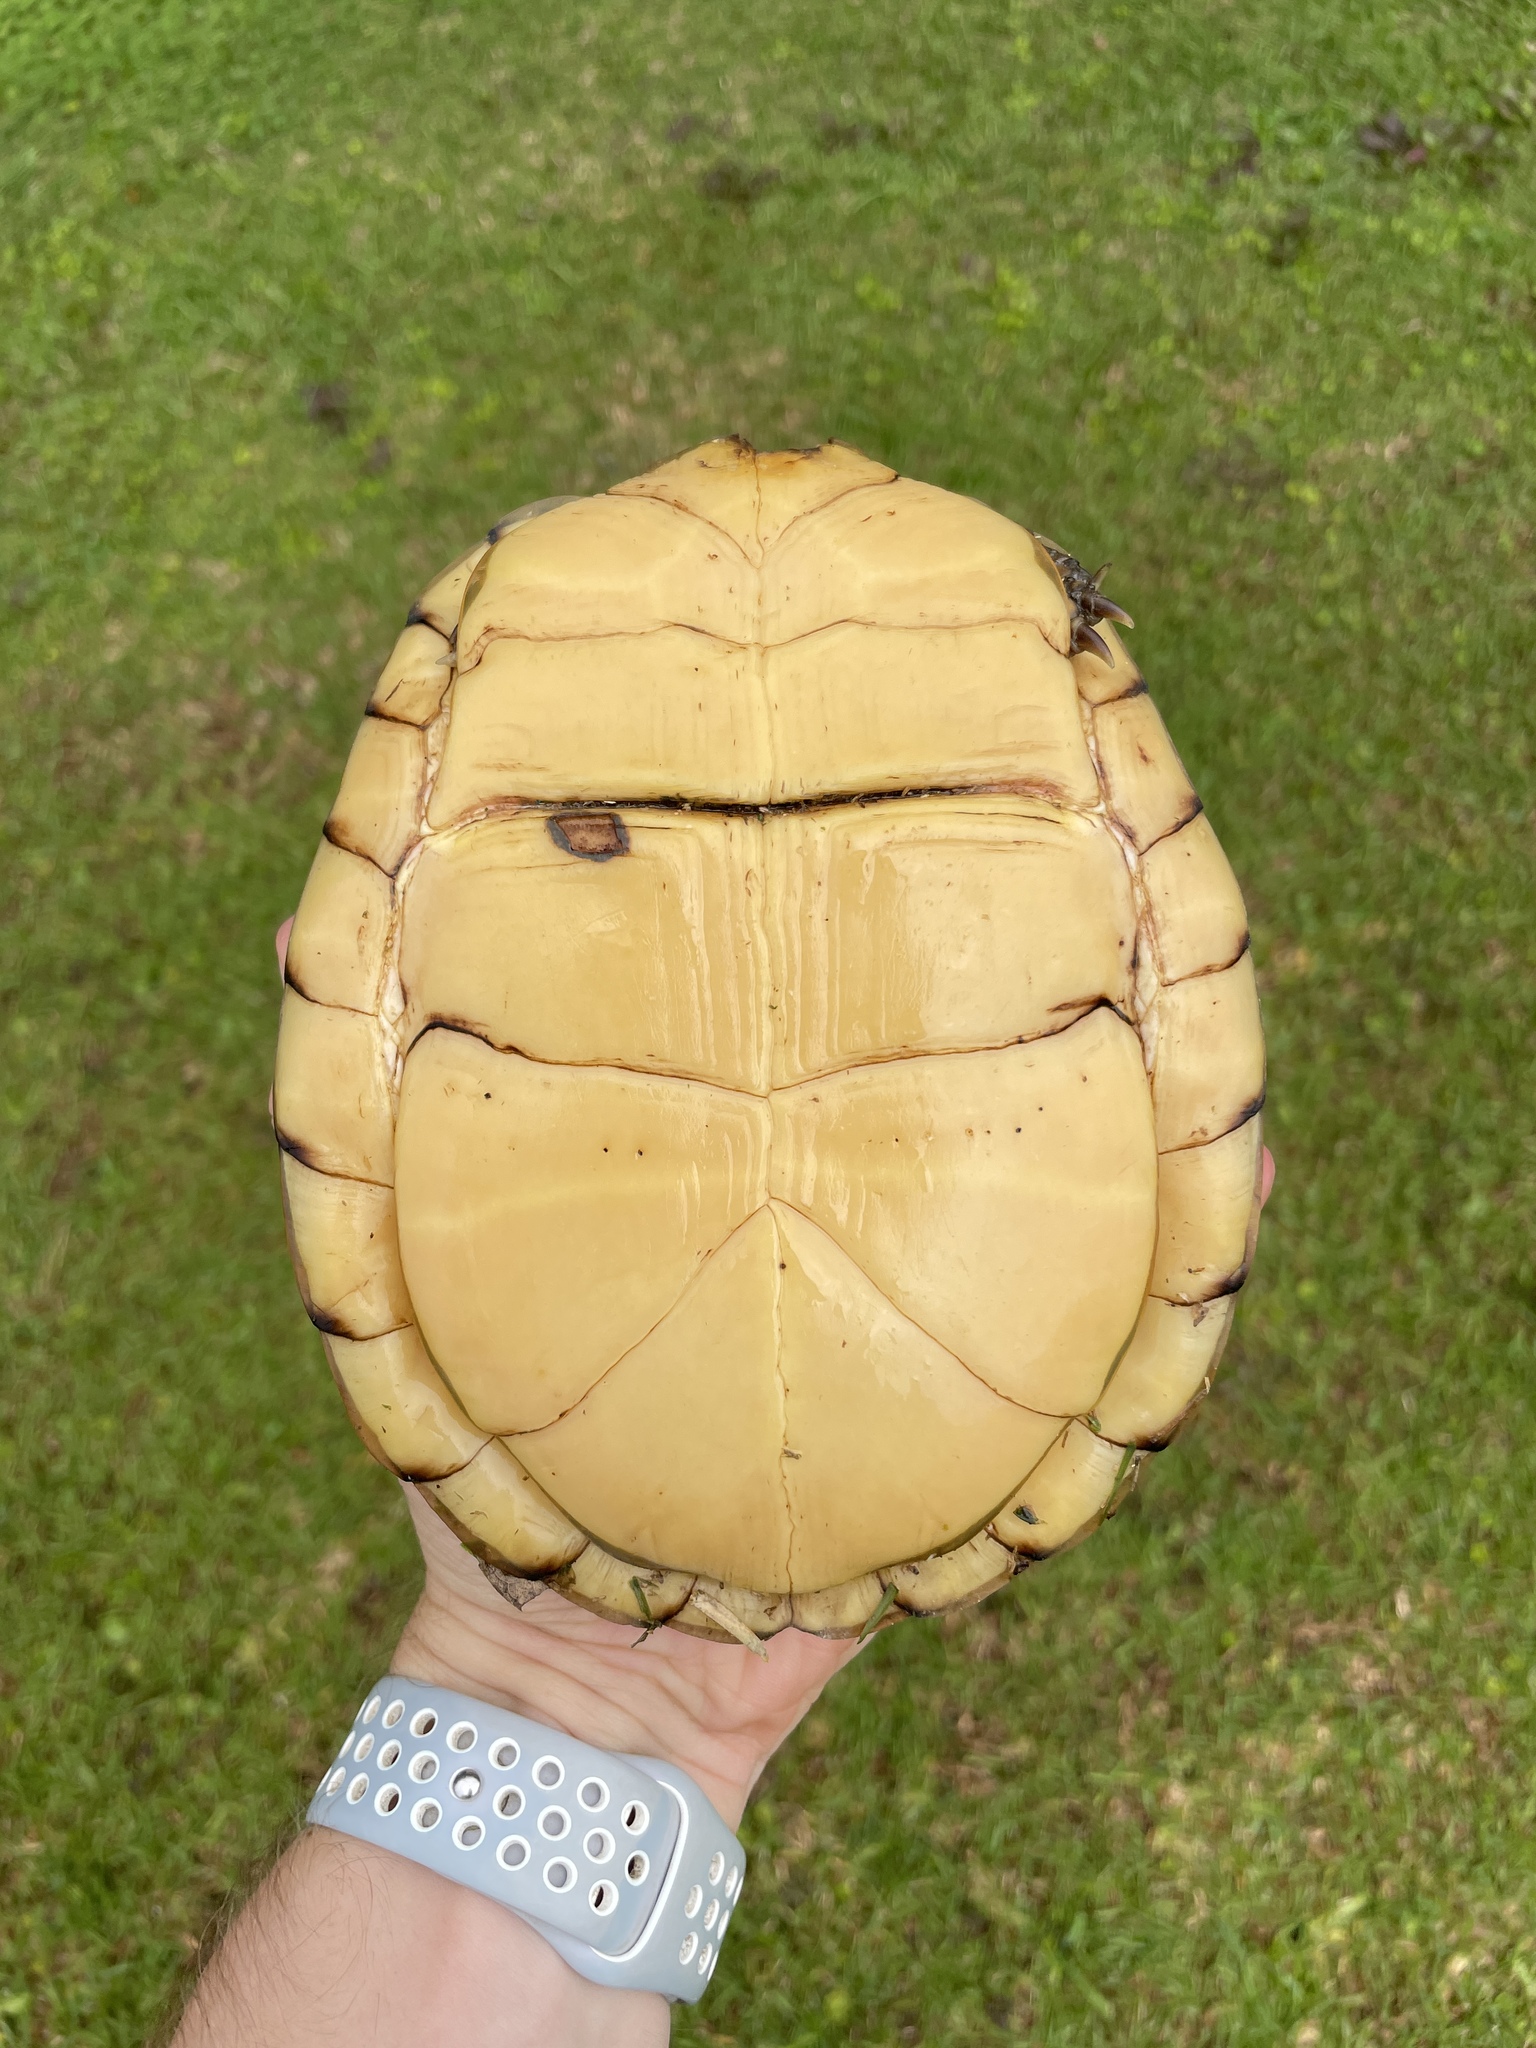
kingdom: Animalia
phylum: Chordata
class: Testudines
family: Emydidae
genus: Terrapene
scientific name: Terrapene carolina
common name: Common box turtle
